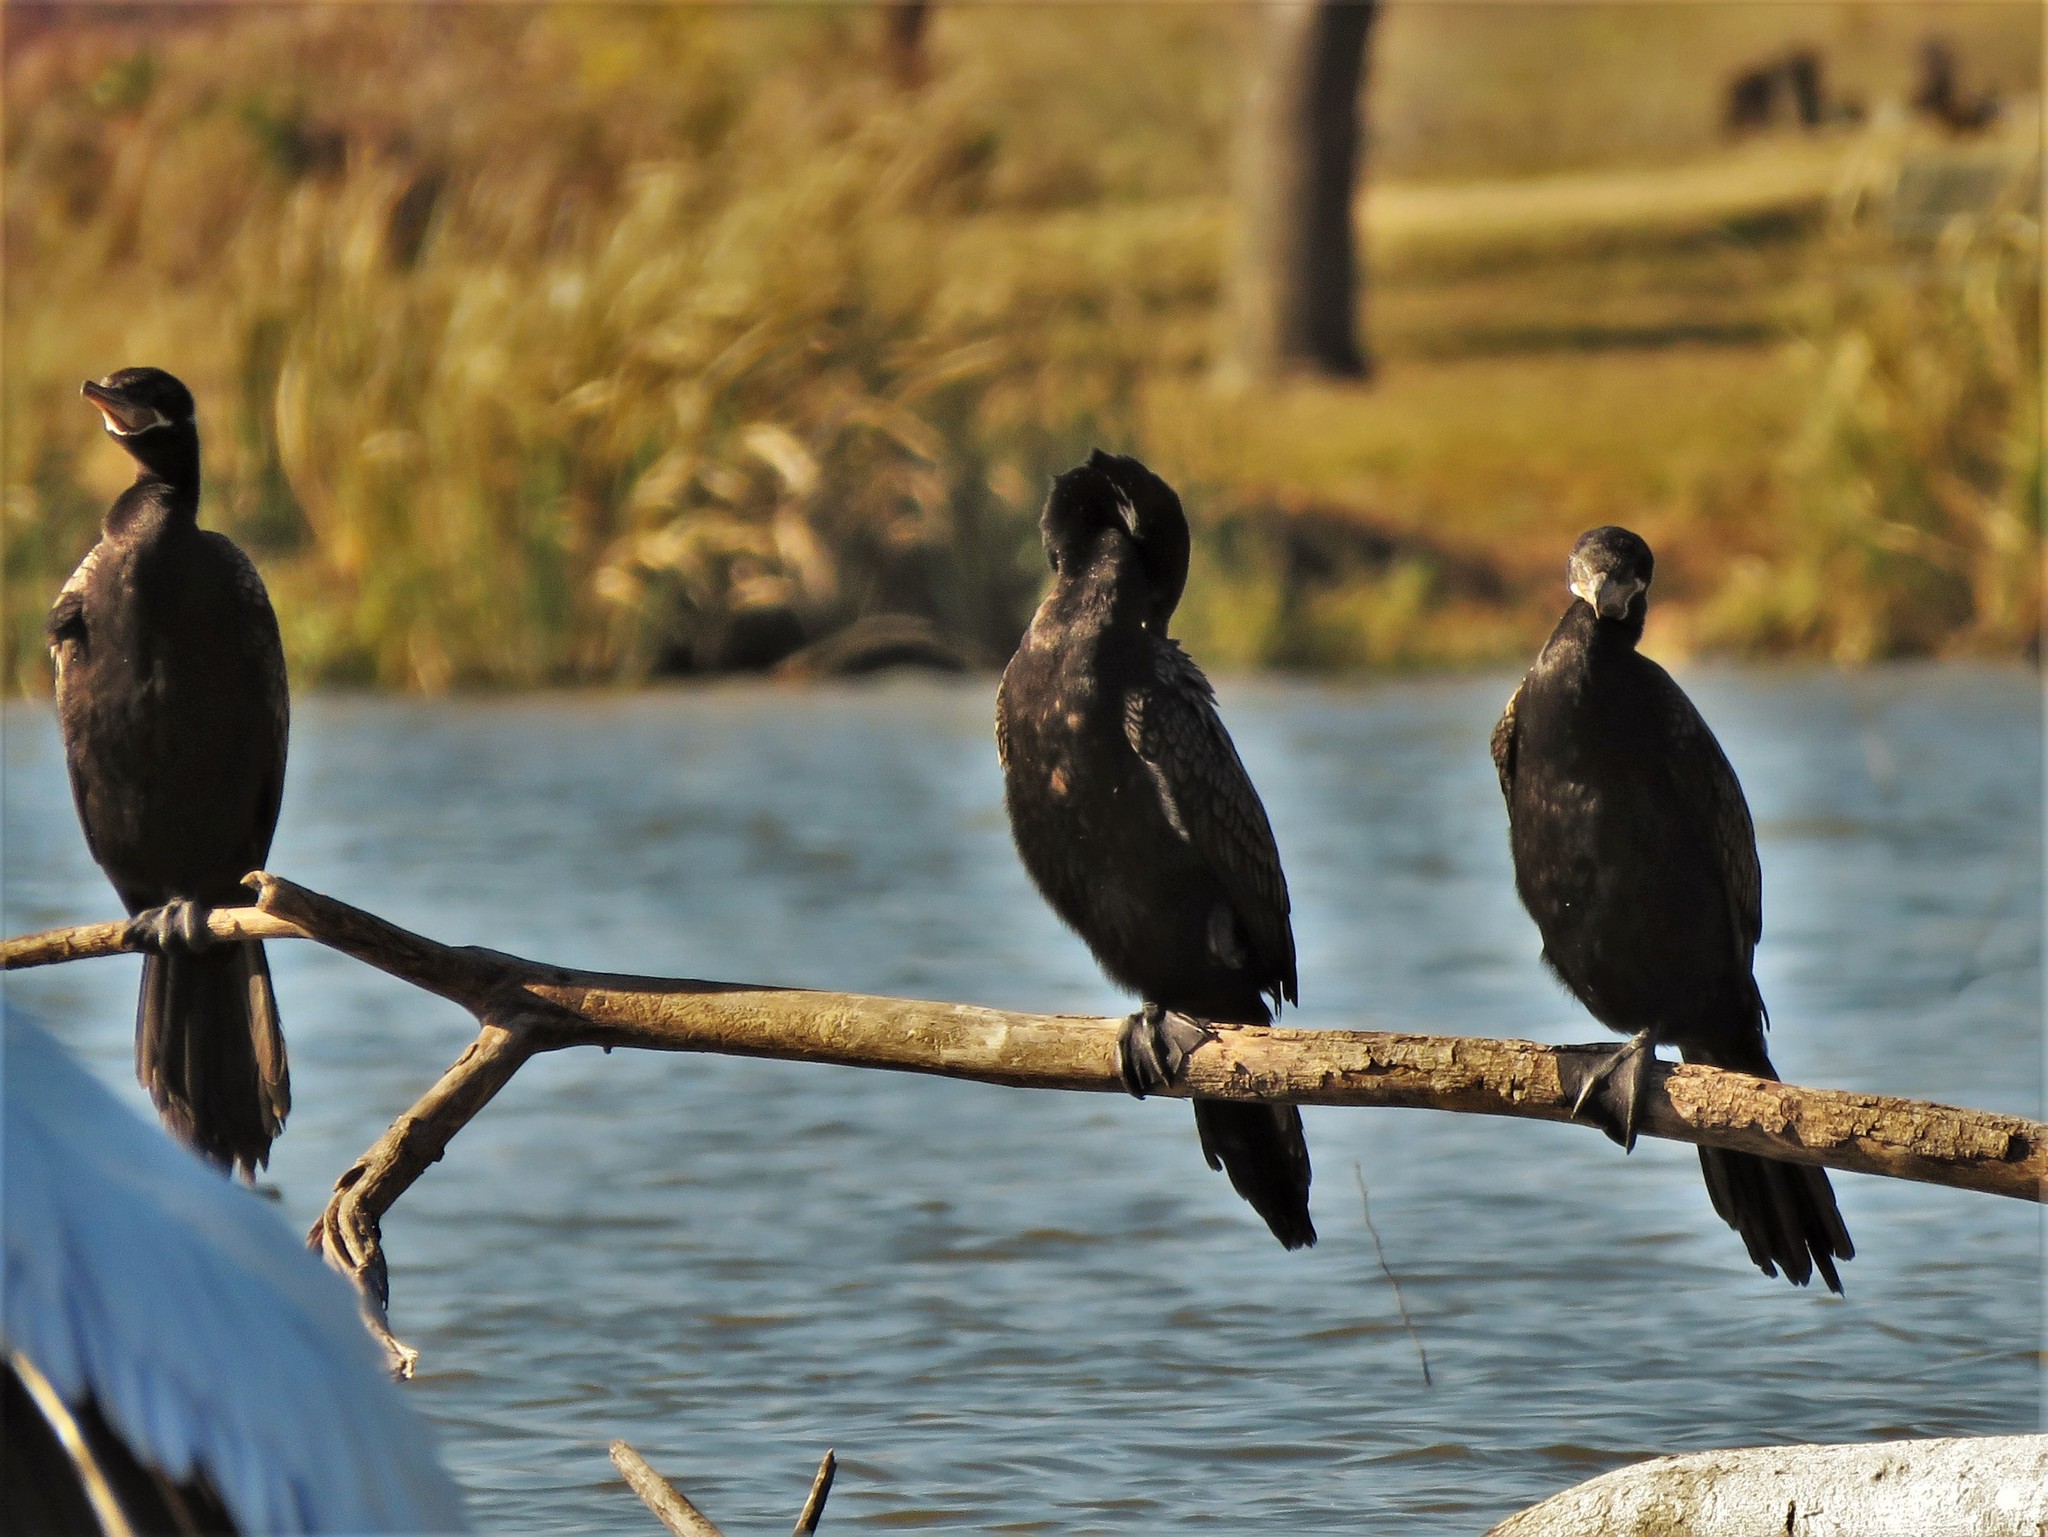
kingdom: Animalia
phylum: Chordata
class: Aves
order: Suliformes
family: Phalacrocoracidae
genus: Phalacrocorax
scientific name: Phalacrocorax brasilianus
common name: Neotropic cormorant
